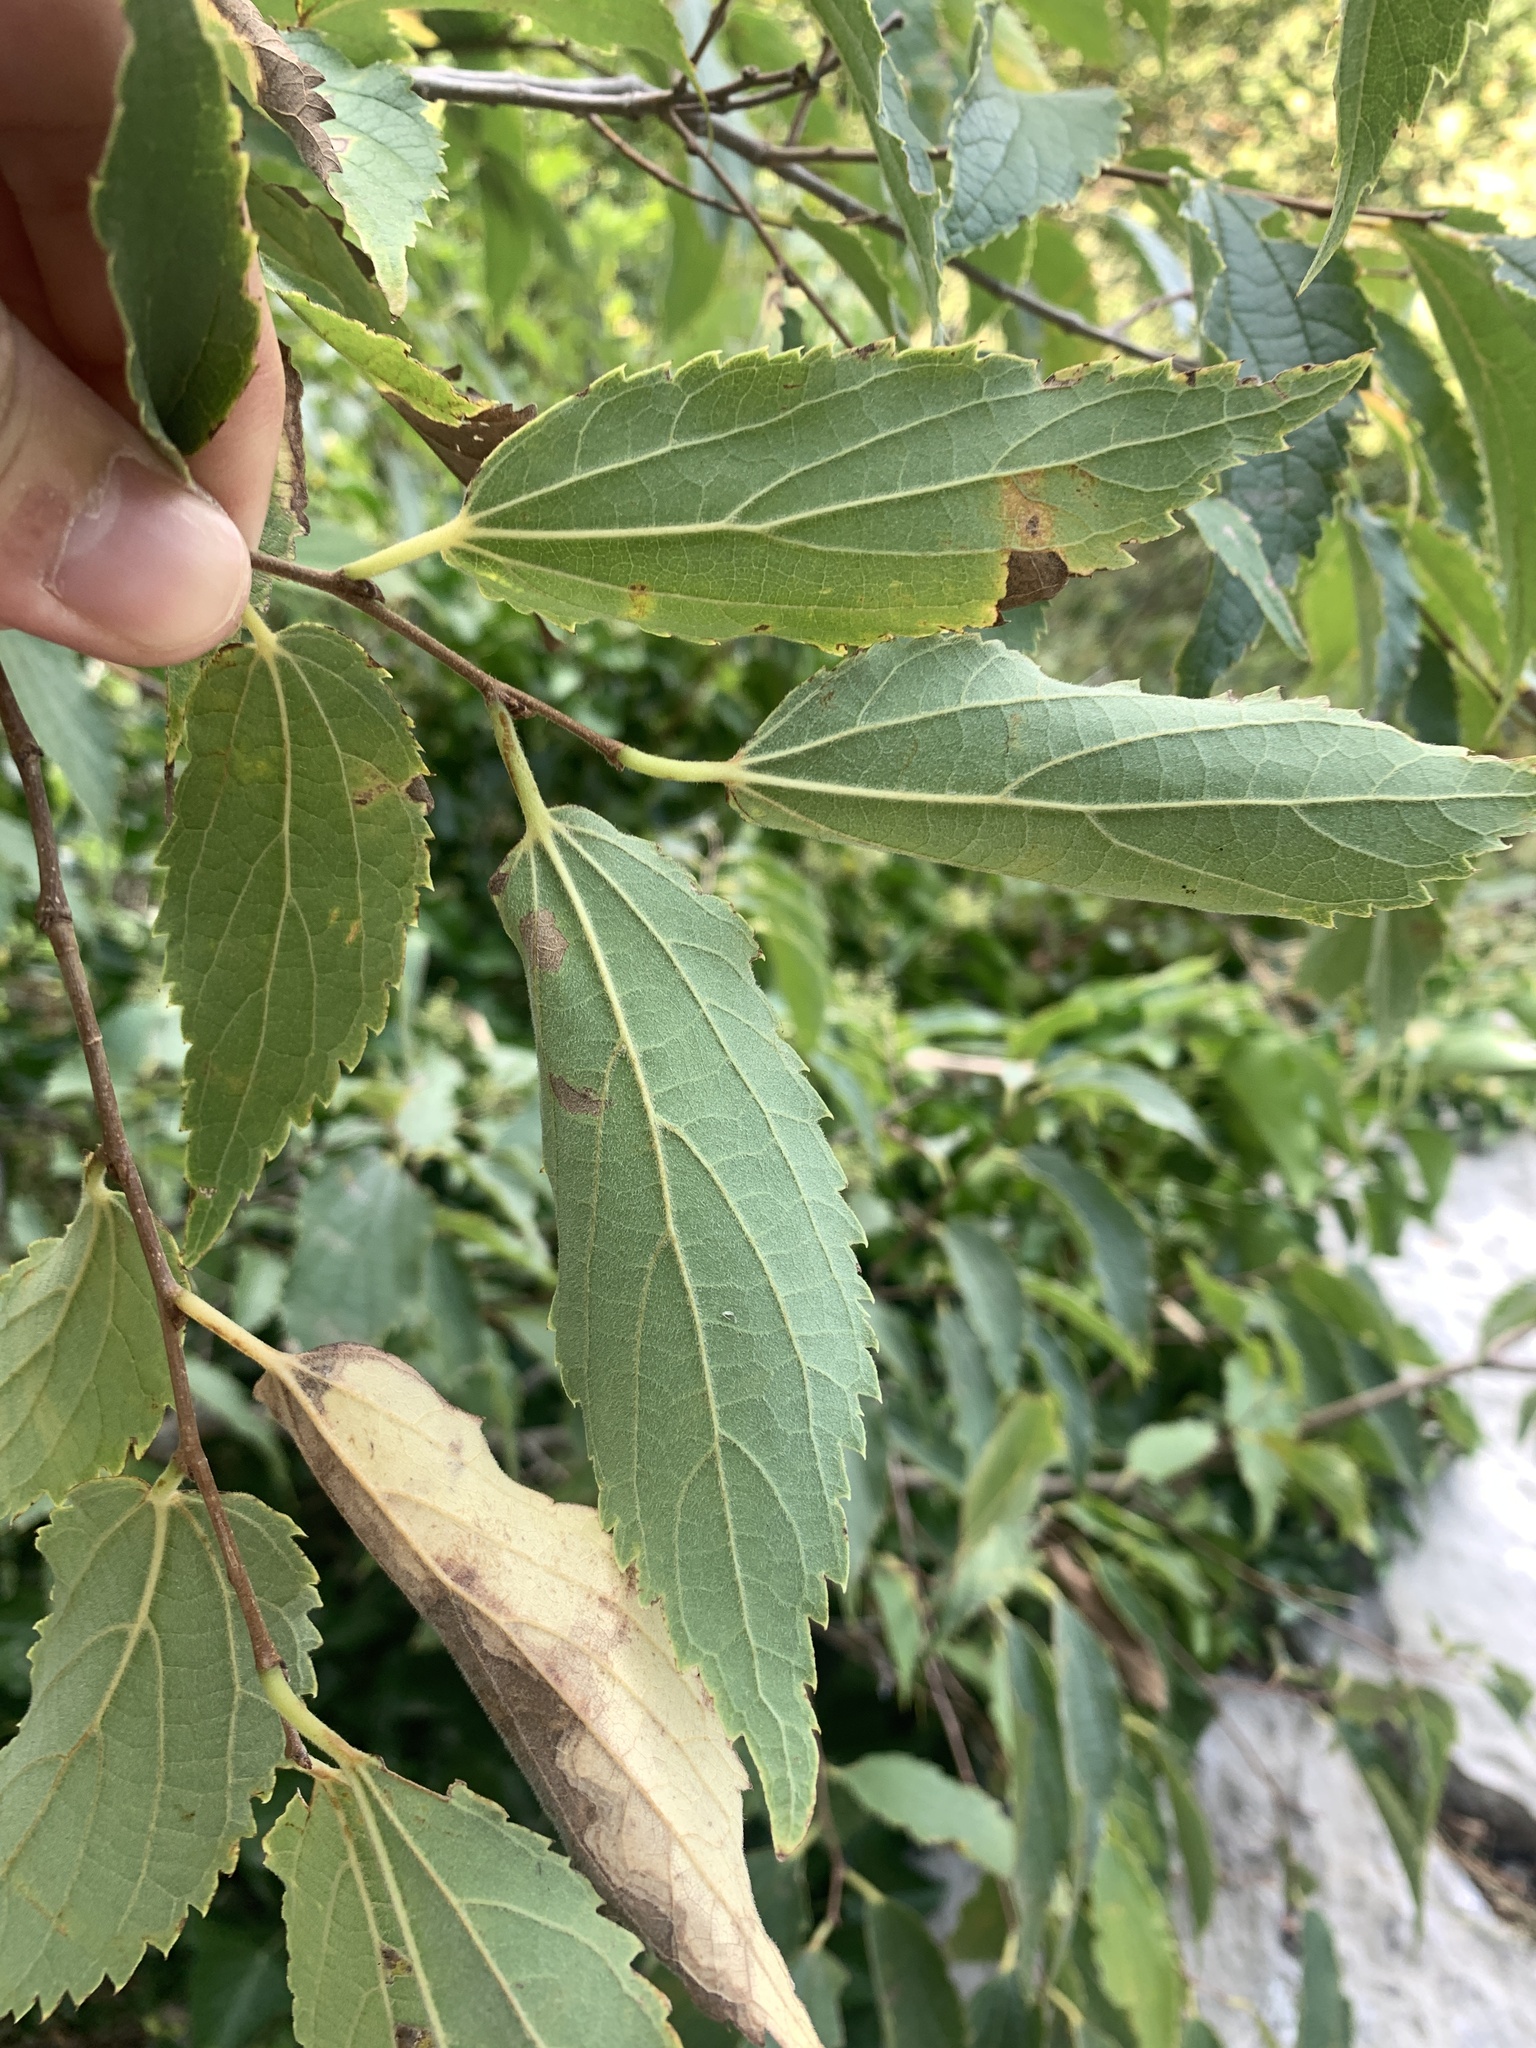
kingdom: Plantae
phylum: Tracheophyta
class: Magnoliopsida
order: Rosales
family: Cannabaceae
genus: Celtis
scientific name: Celtis australis
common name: European hackberry
